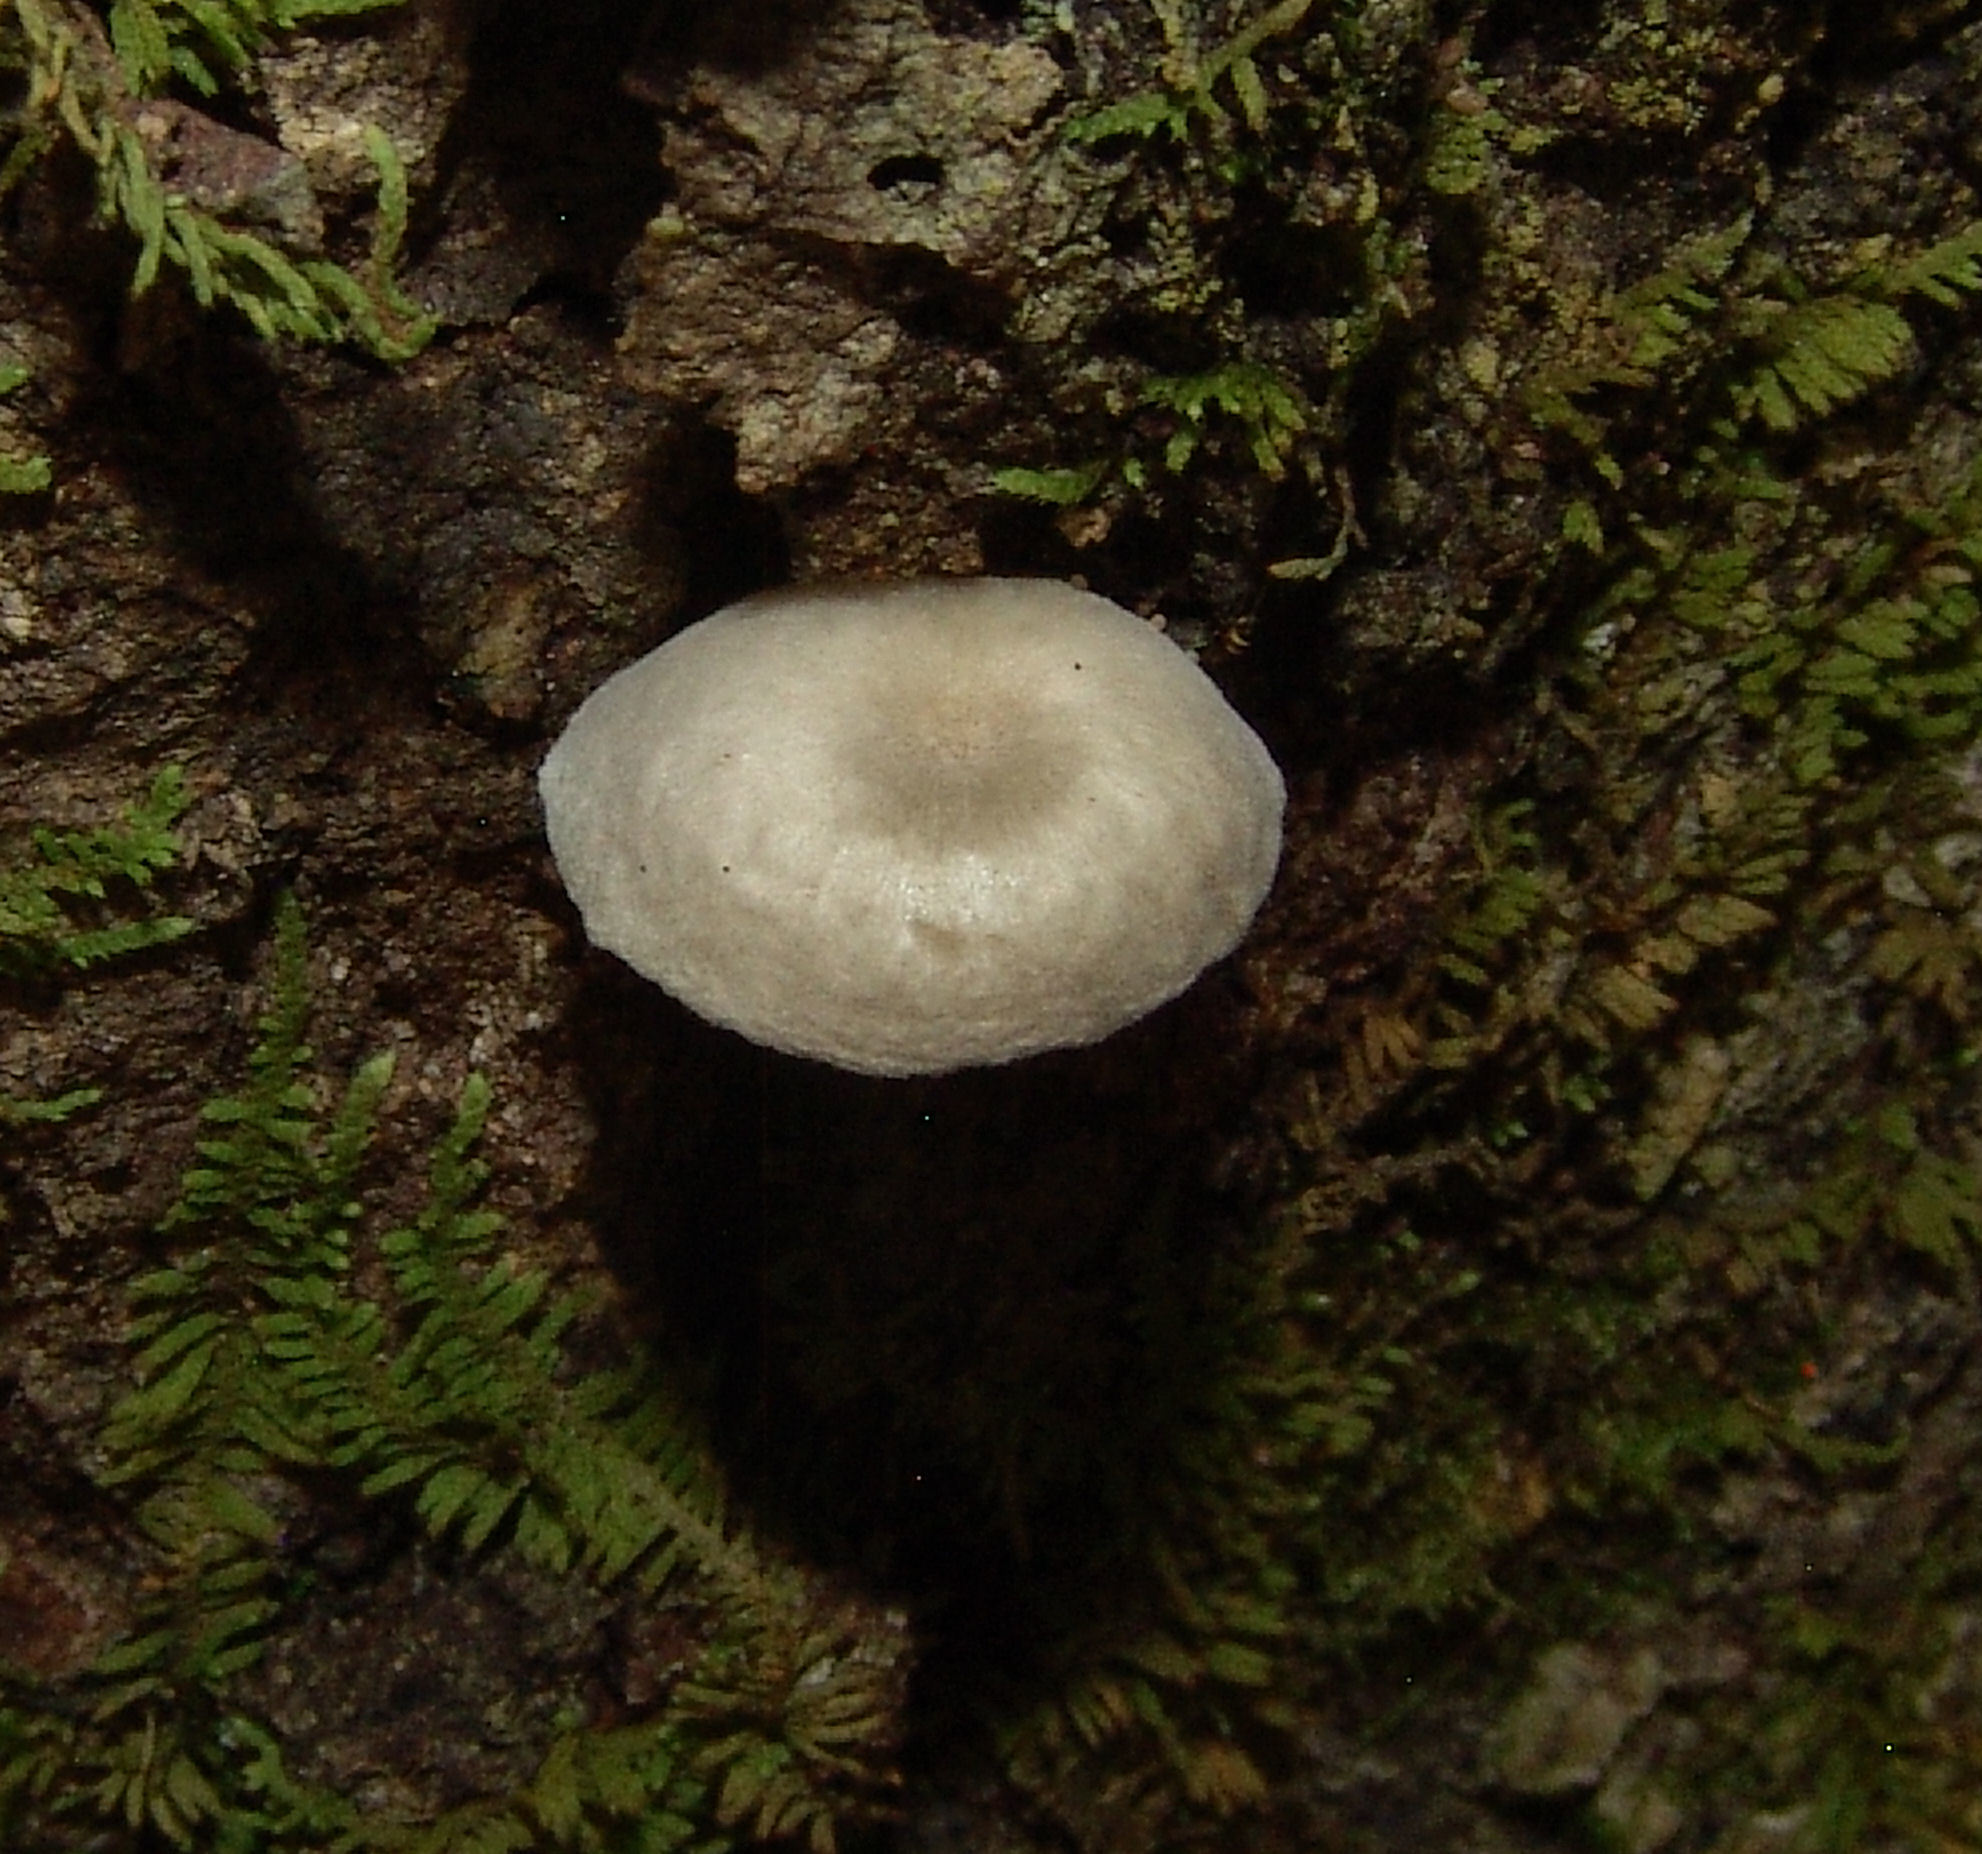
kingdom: Fungi
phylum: Basidiomycota
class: Agaricomycetes
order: Agaricales
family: Porotheleaceae
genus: Pulverulina
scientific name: Pulverulina ulmicola
